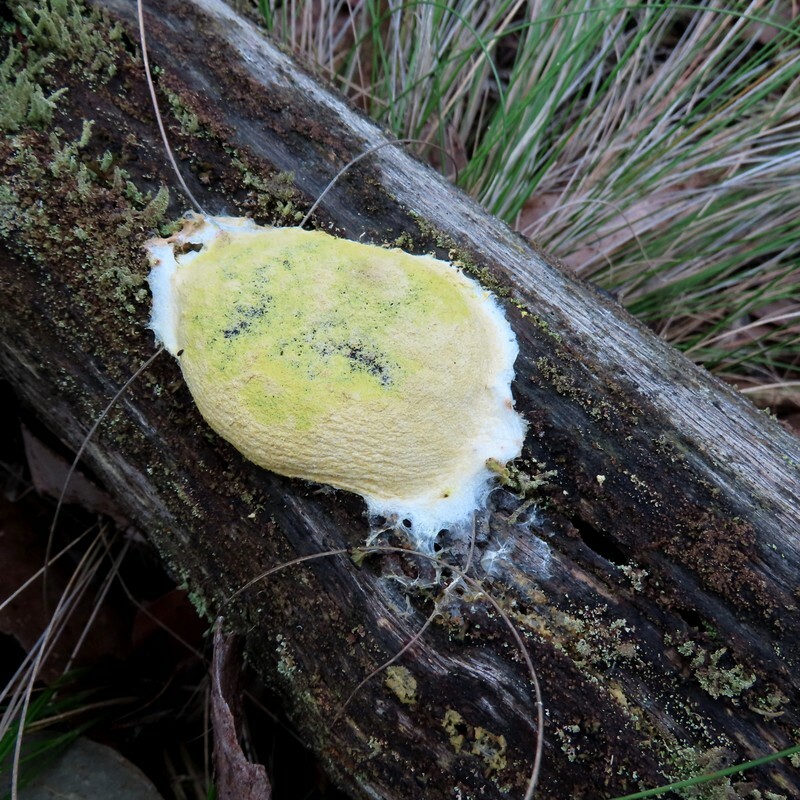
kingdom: Protozoa
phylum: Mycetozoa
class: Myxomycetes
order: Physarales
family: Physaraceae
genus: Fuligo
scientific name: Fuligo septica
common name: Dog vomit slime mold
